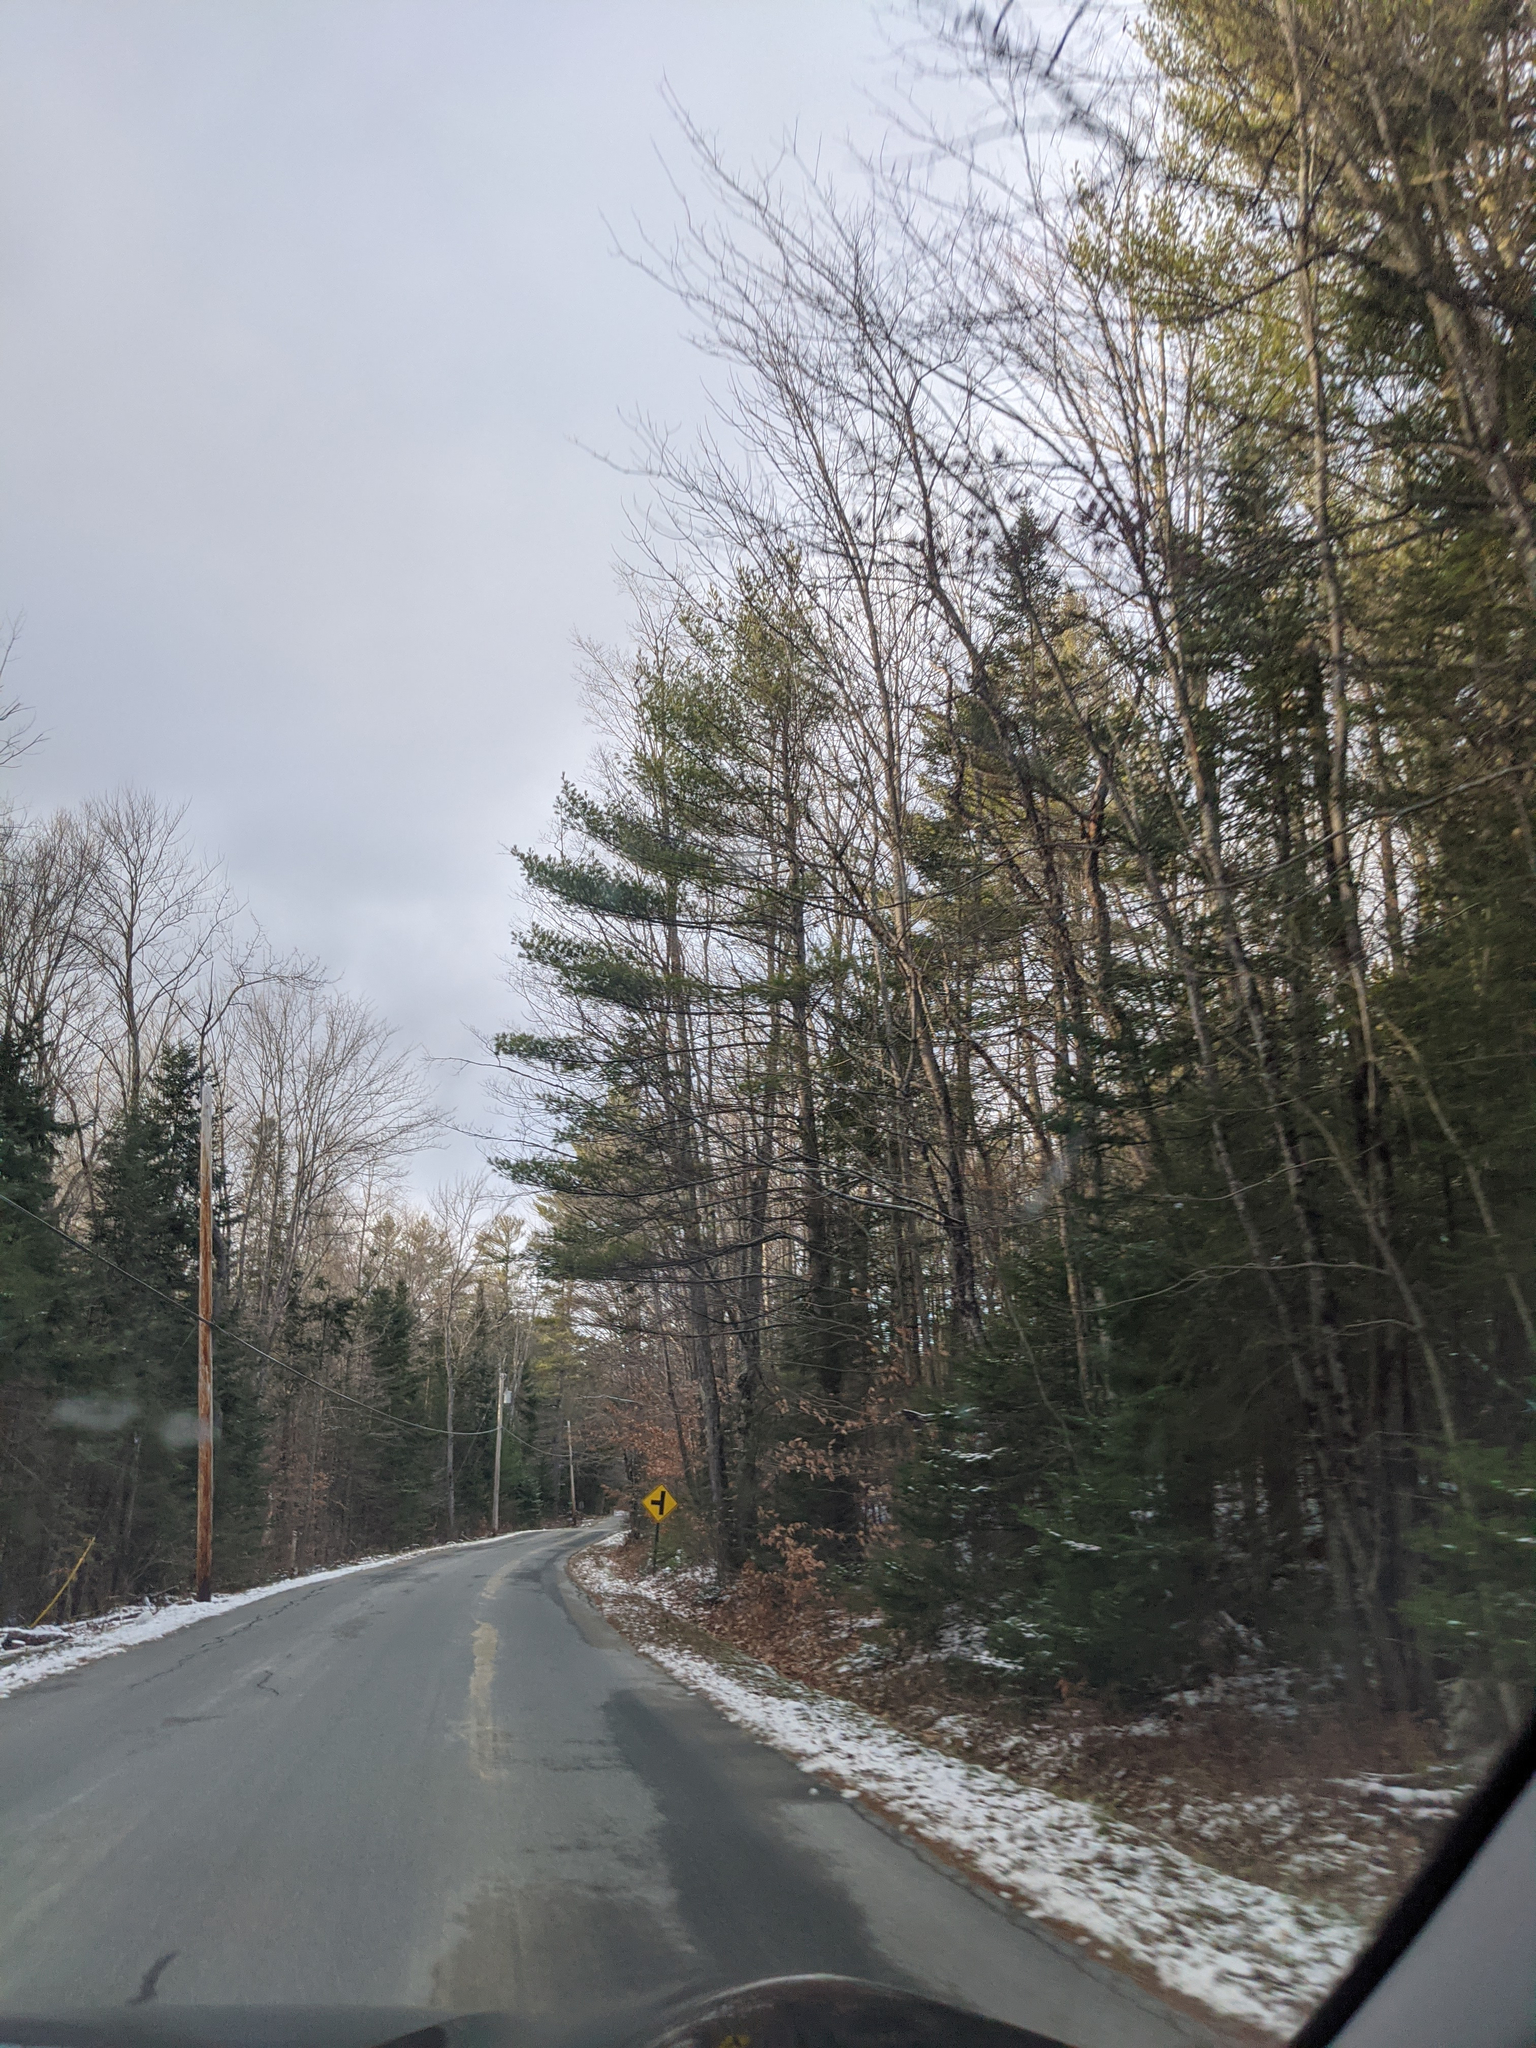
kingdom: Plantae
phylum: Tracheophyta
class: Pinopsida
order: Pinales
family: Pinaceae
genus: Pinus
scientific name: Pinus strobus
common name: Weymouth pine
